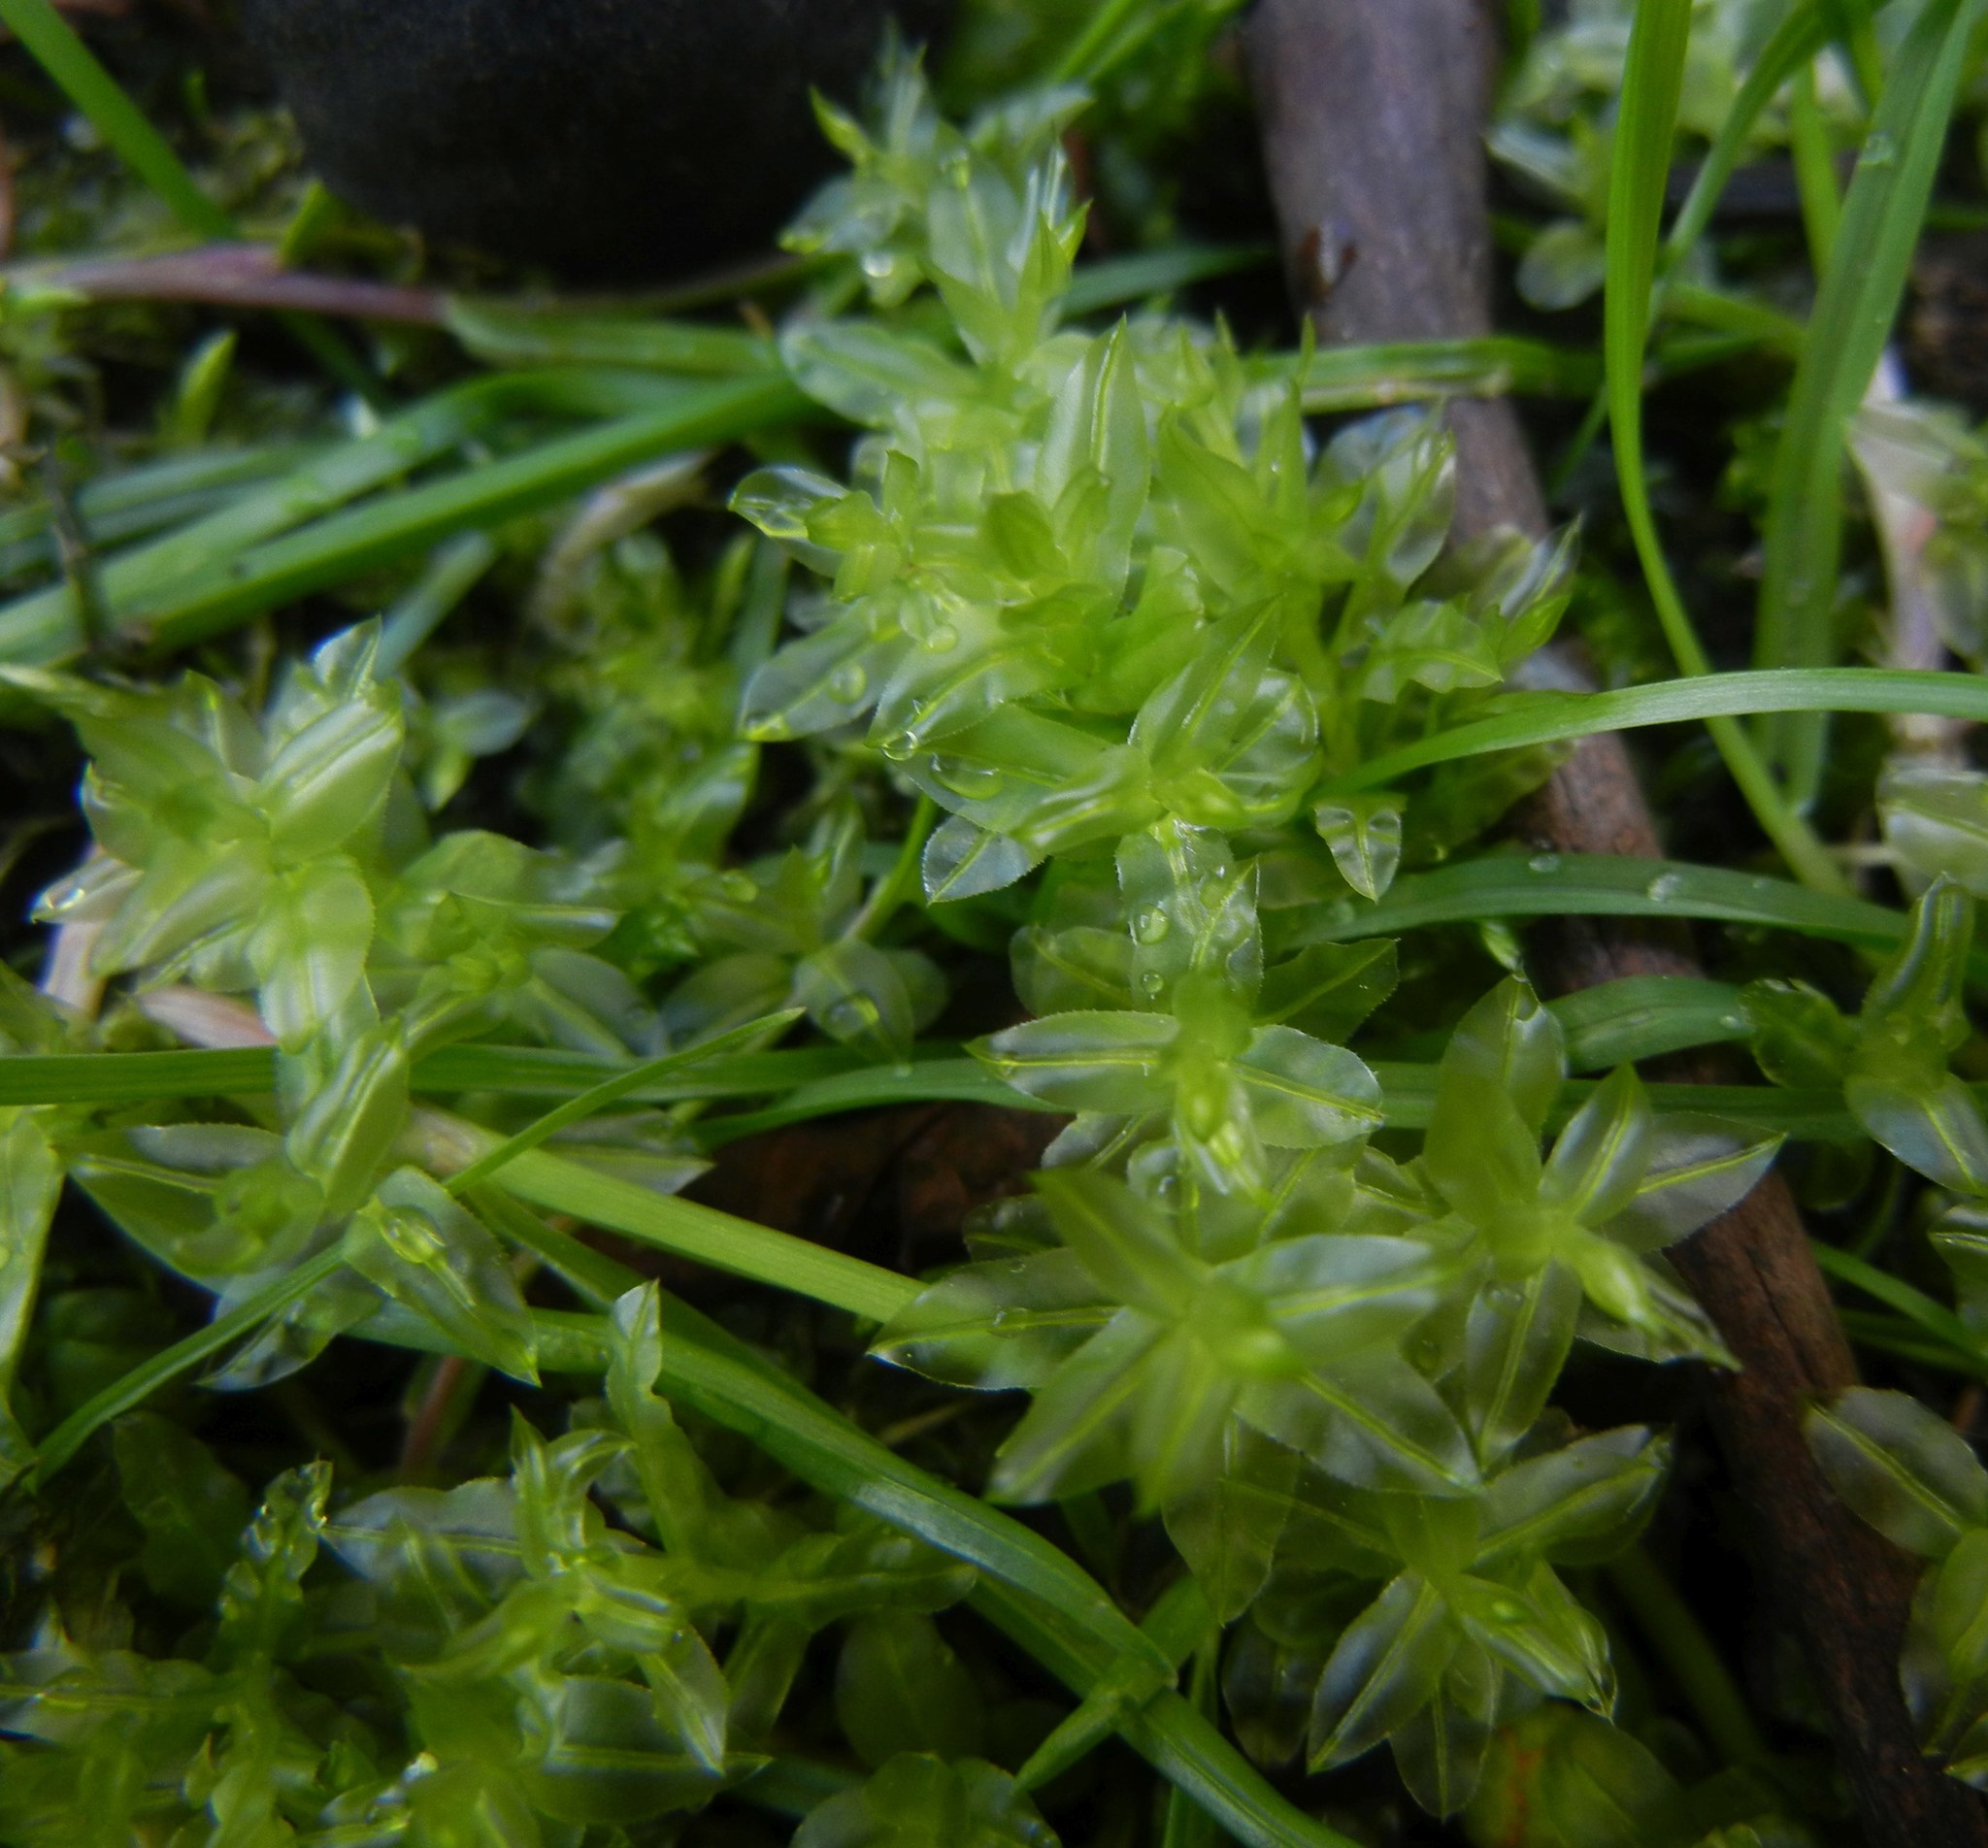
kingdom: Plantae
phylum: Bryophyta
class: Bryopsida
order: Bryales
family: Mniaceae
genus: Plagiomnium
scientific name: Plagiomnium undulatum
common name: Hart's-tongue thyme-moss
